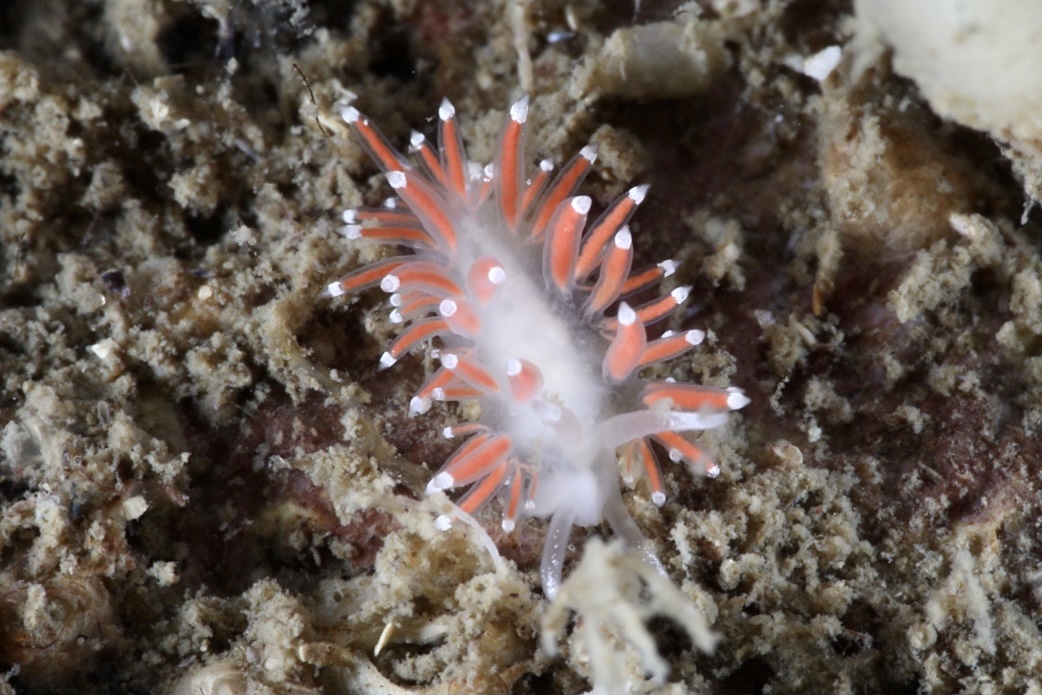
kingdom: Animalia
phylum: Mollusca
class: Gastropoda
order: Nudibranchia
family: Coryphellidae
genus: Coryphella
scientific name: Coryphella gracilis
